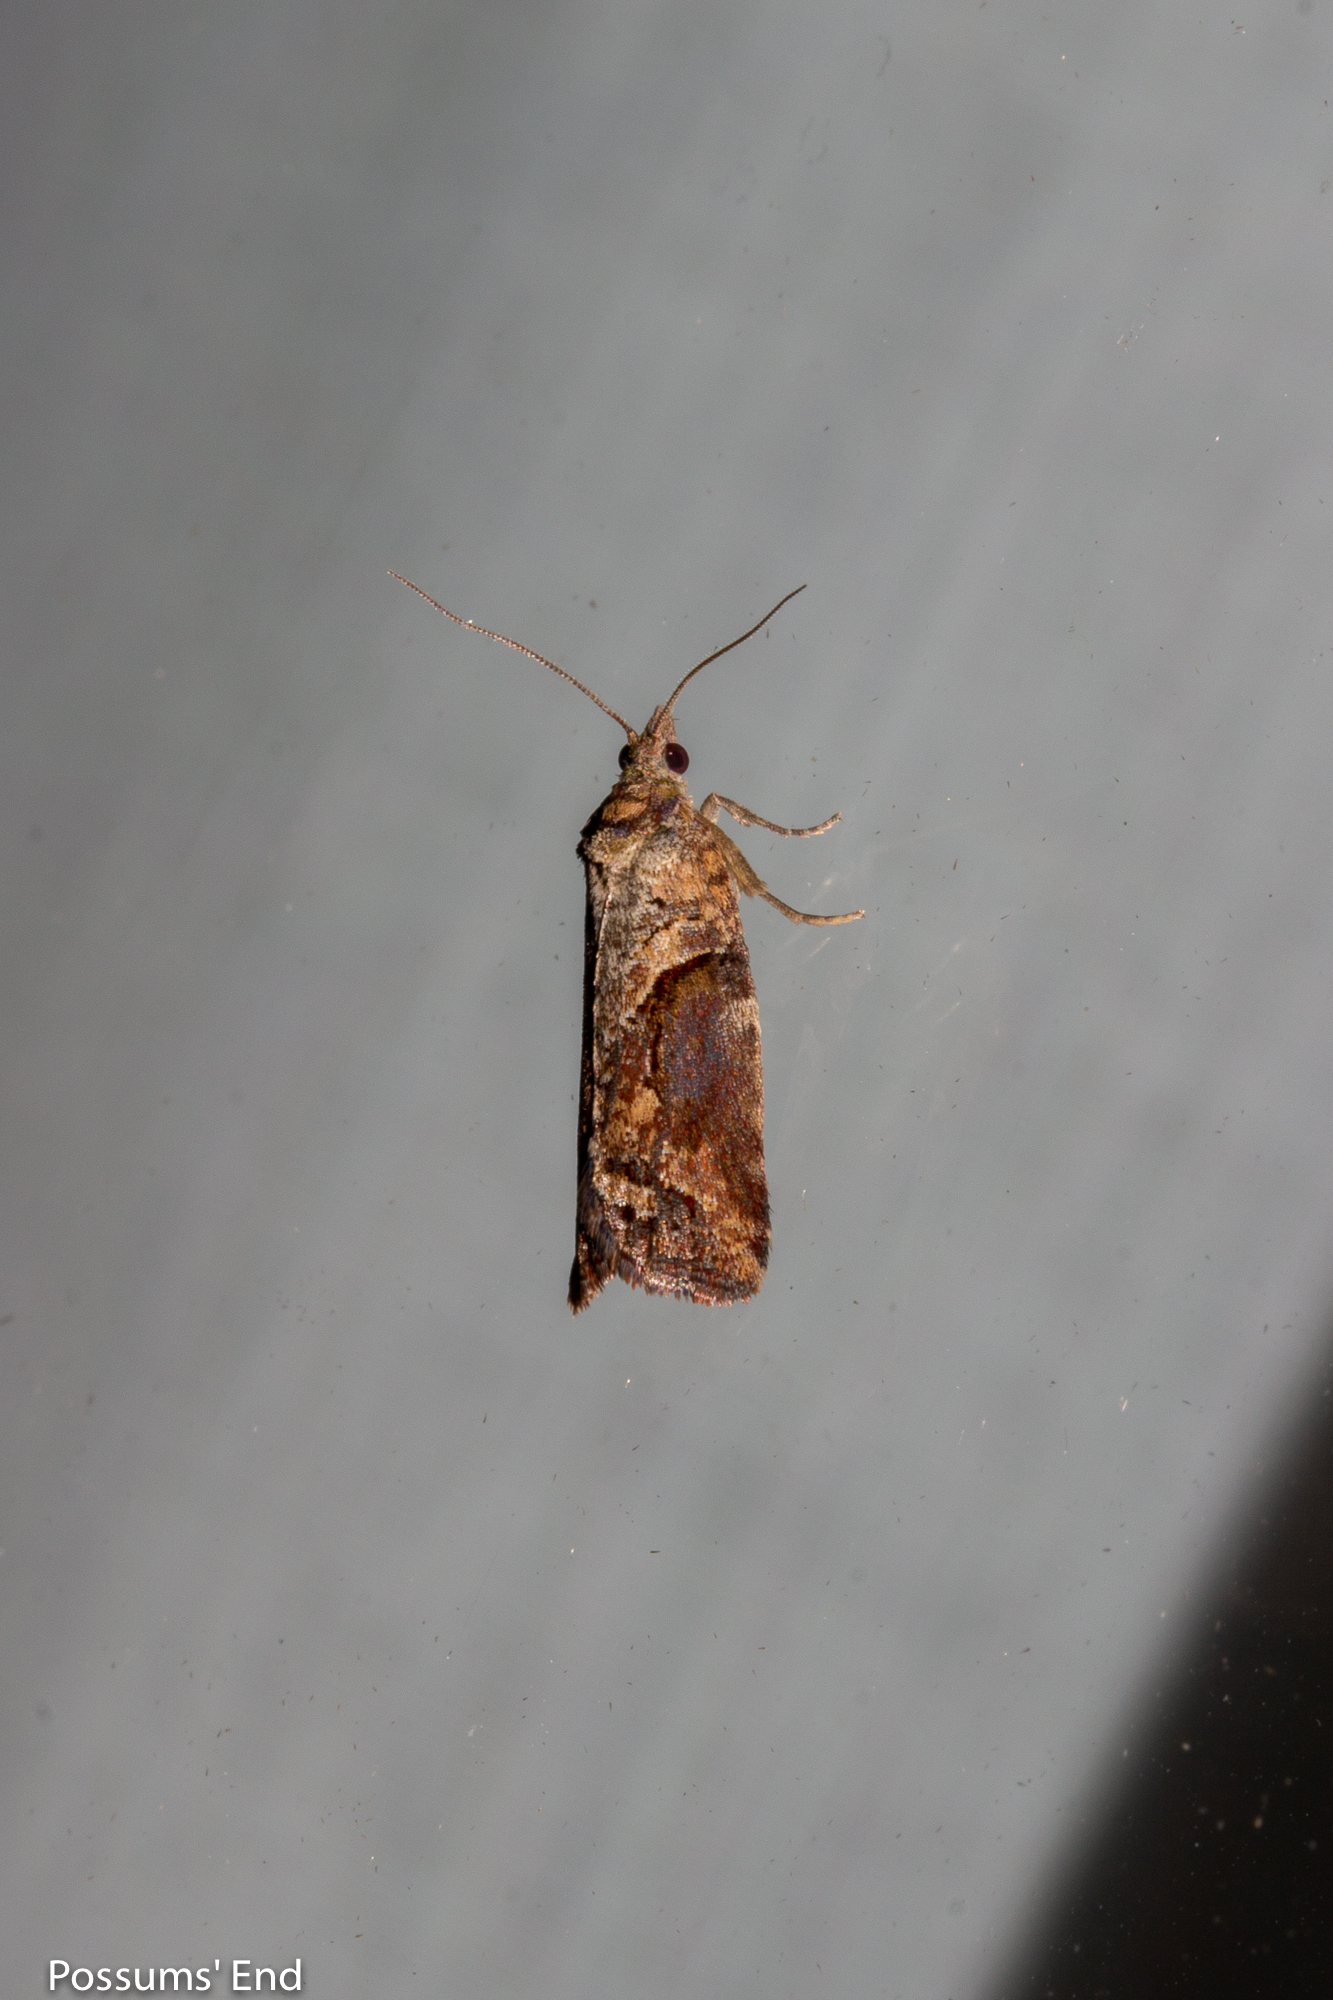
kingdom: Animalia
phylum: Arthropoda
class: Insecta
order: Lepidoptera
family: Tortricidae
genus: Harmologa
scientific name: Harmologa scoliastis
